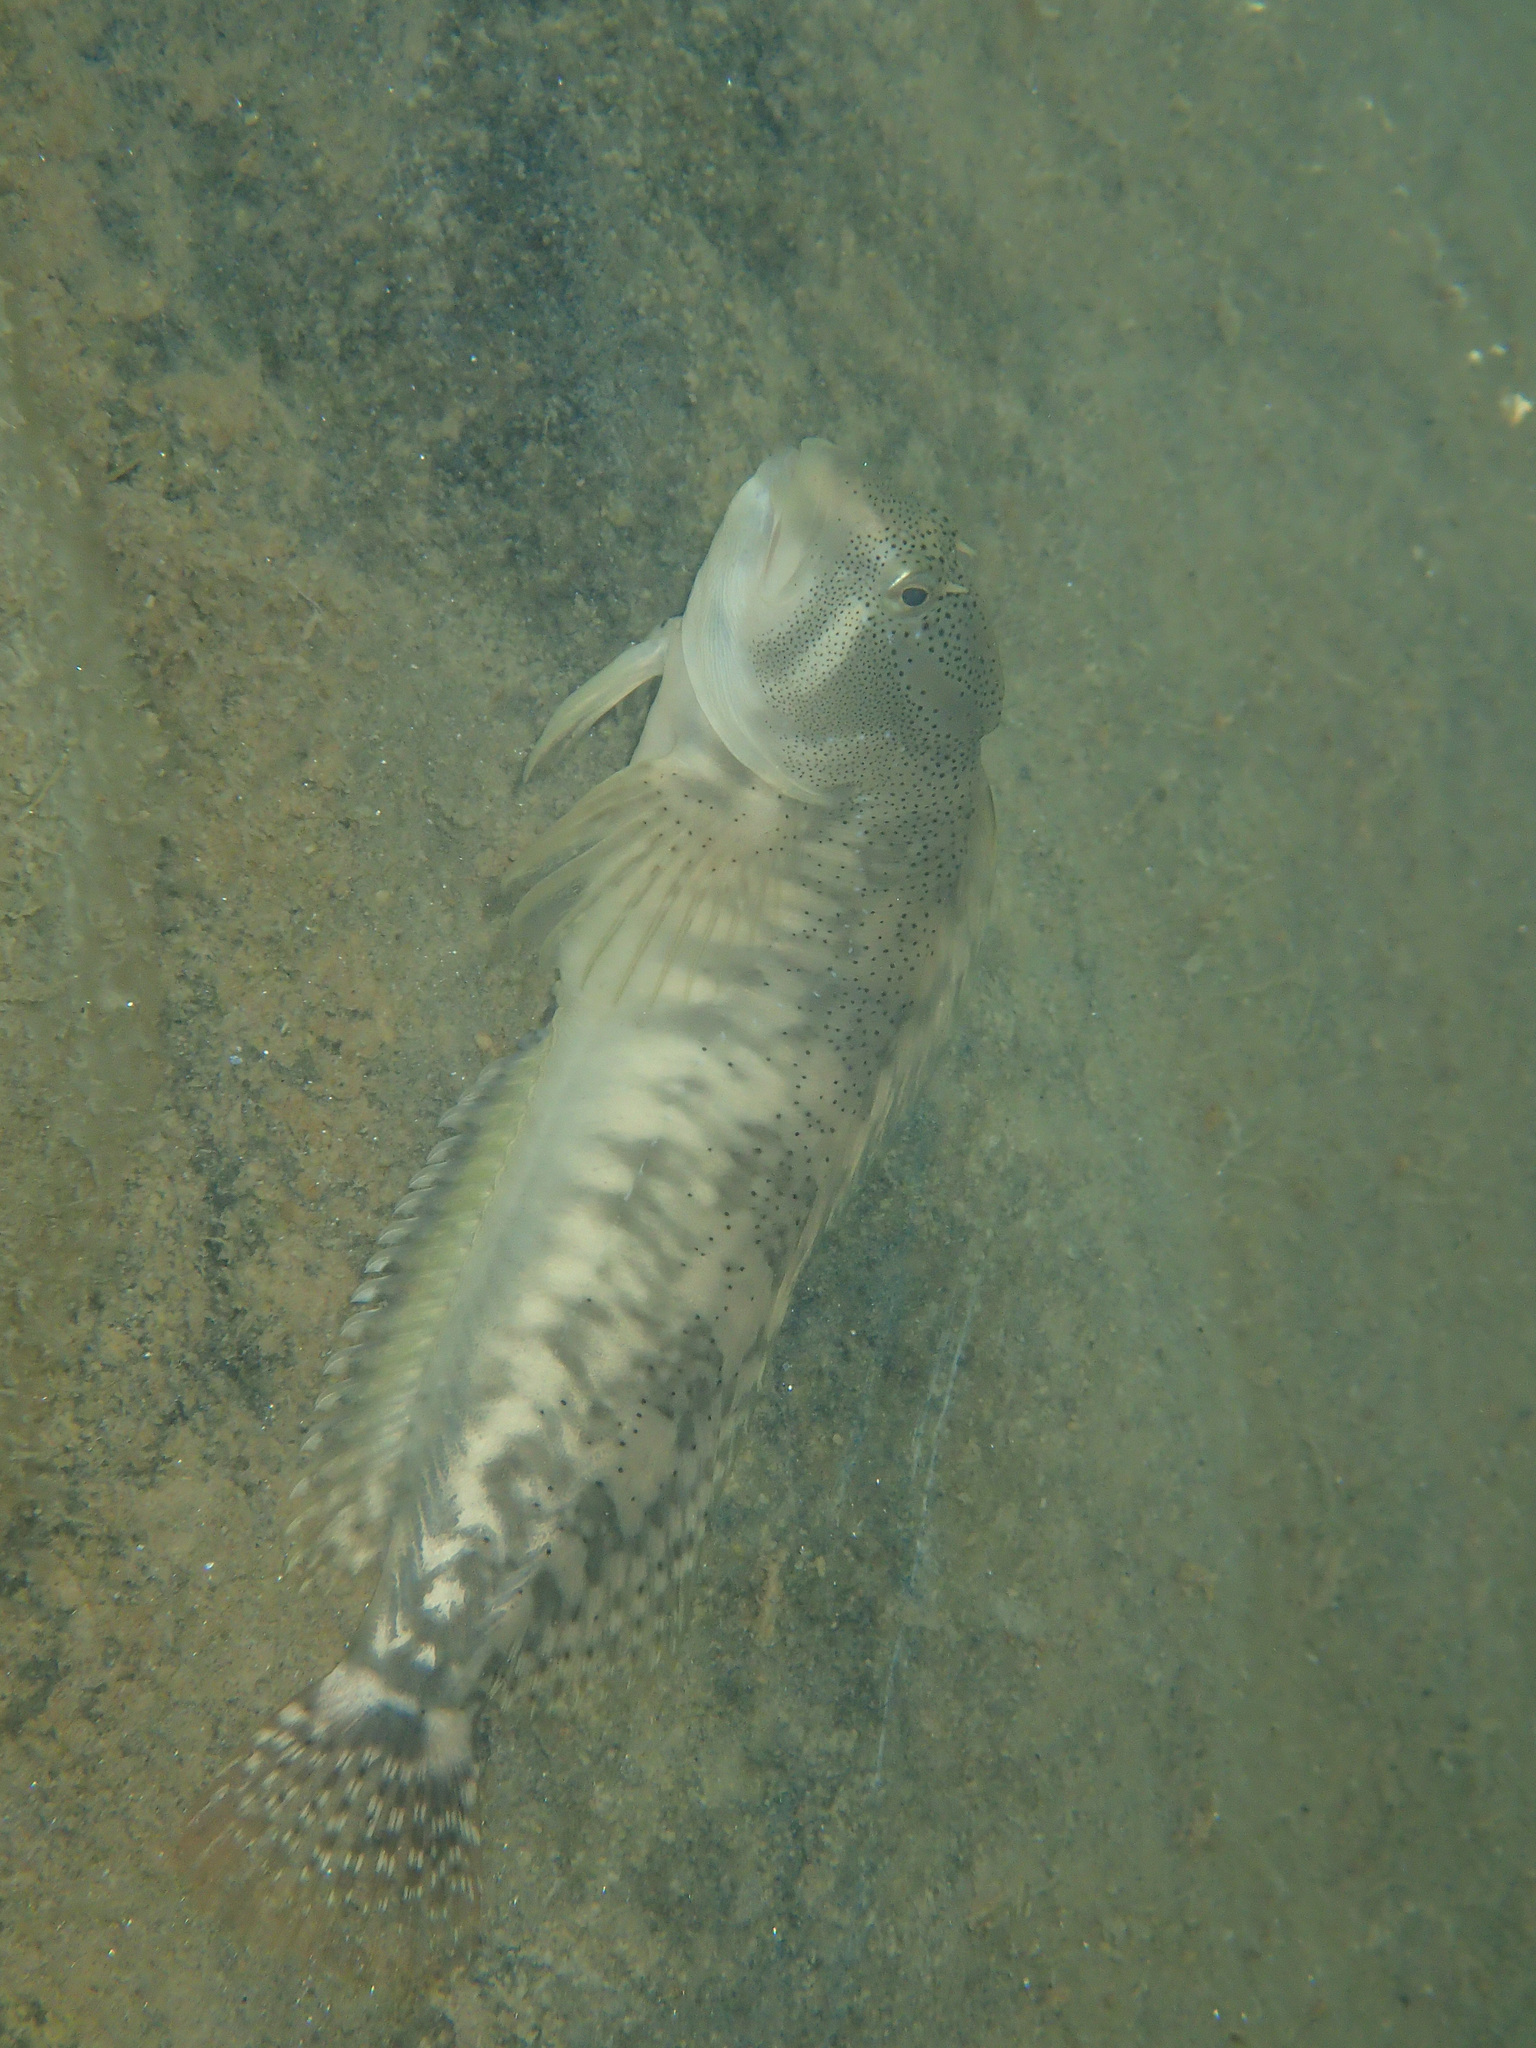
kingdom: Animalia
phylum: Chordata
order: Perciformes
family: Blenniidae
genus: Salaria
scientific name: Salaria fluviatilis
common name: Freshwater blenny
